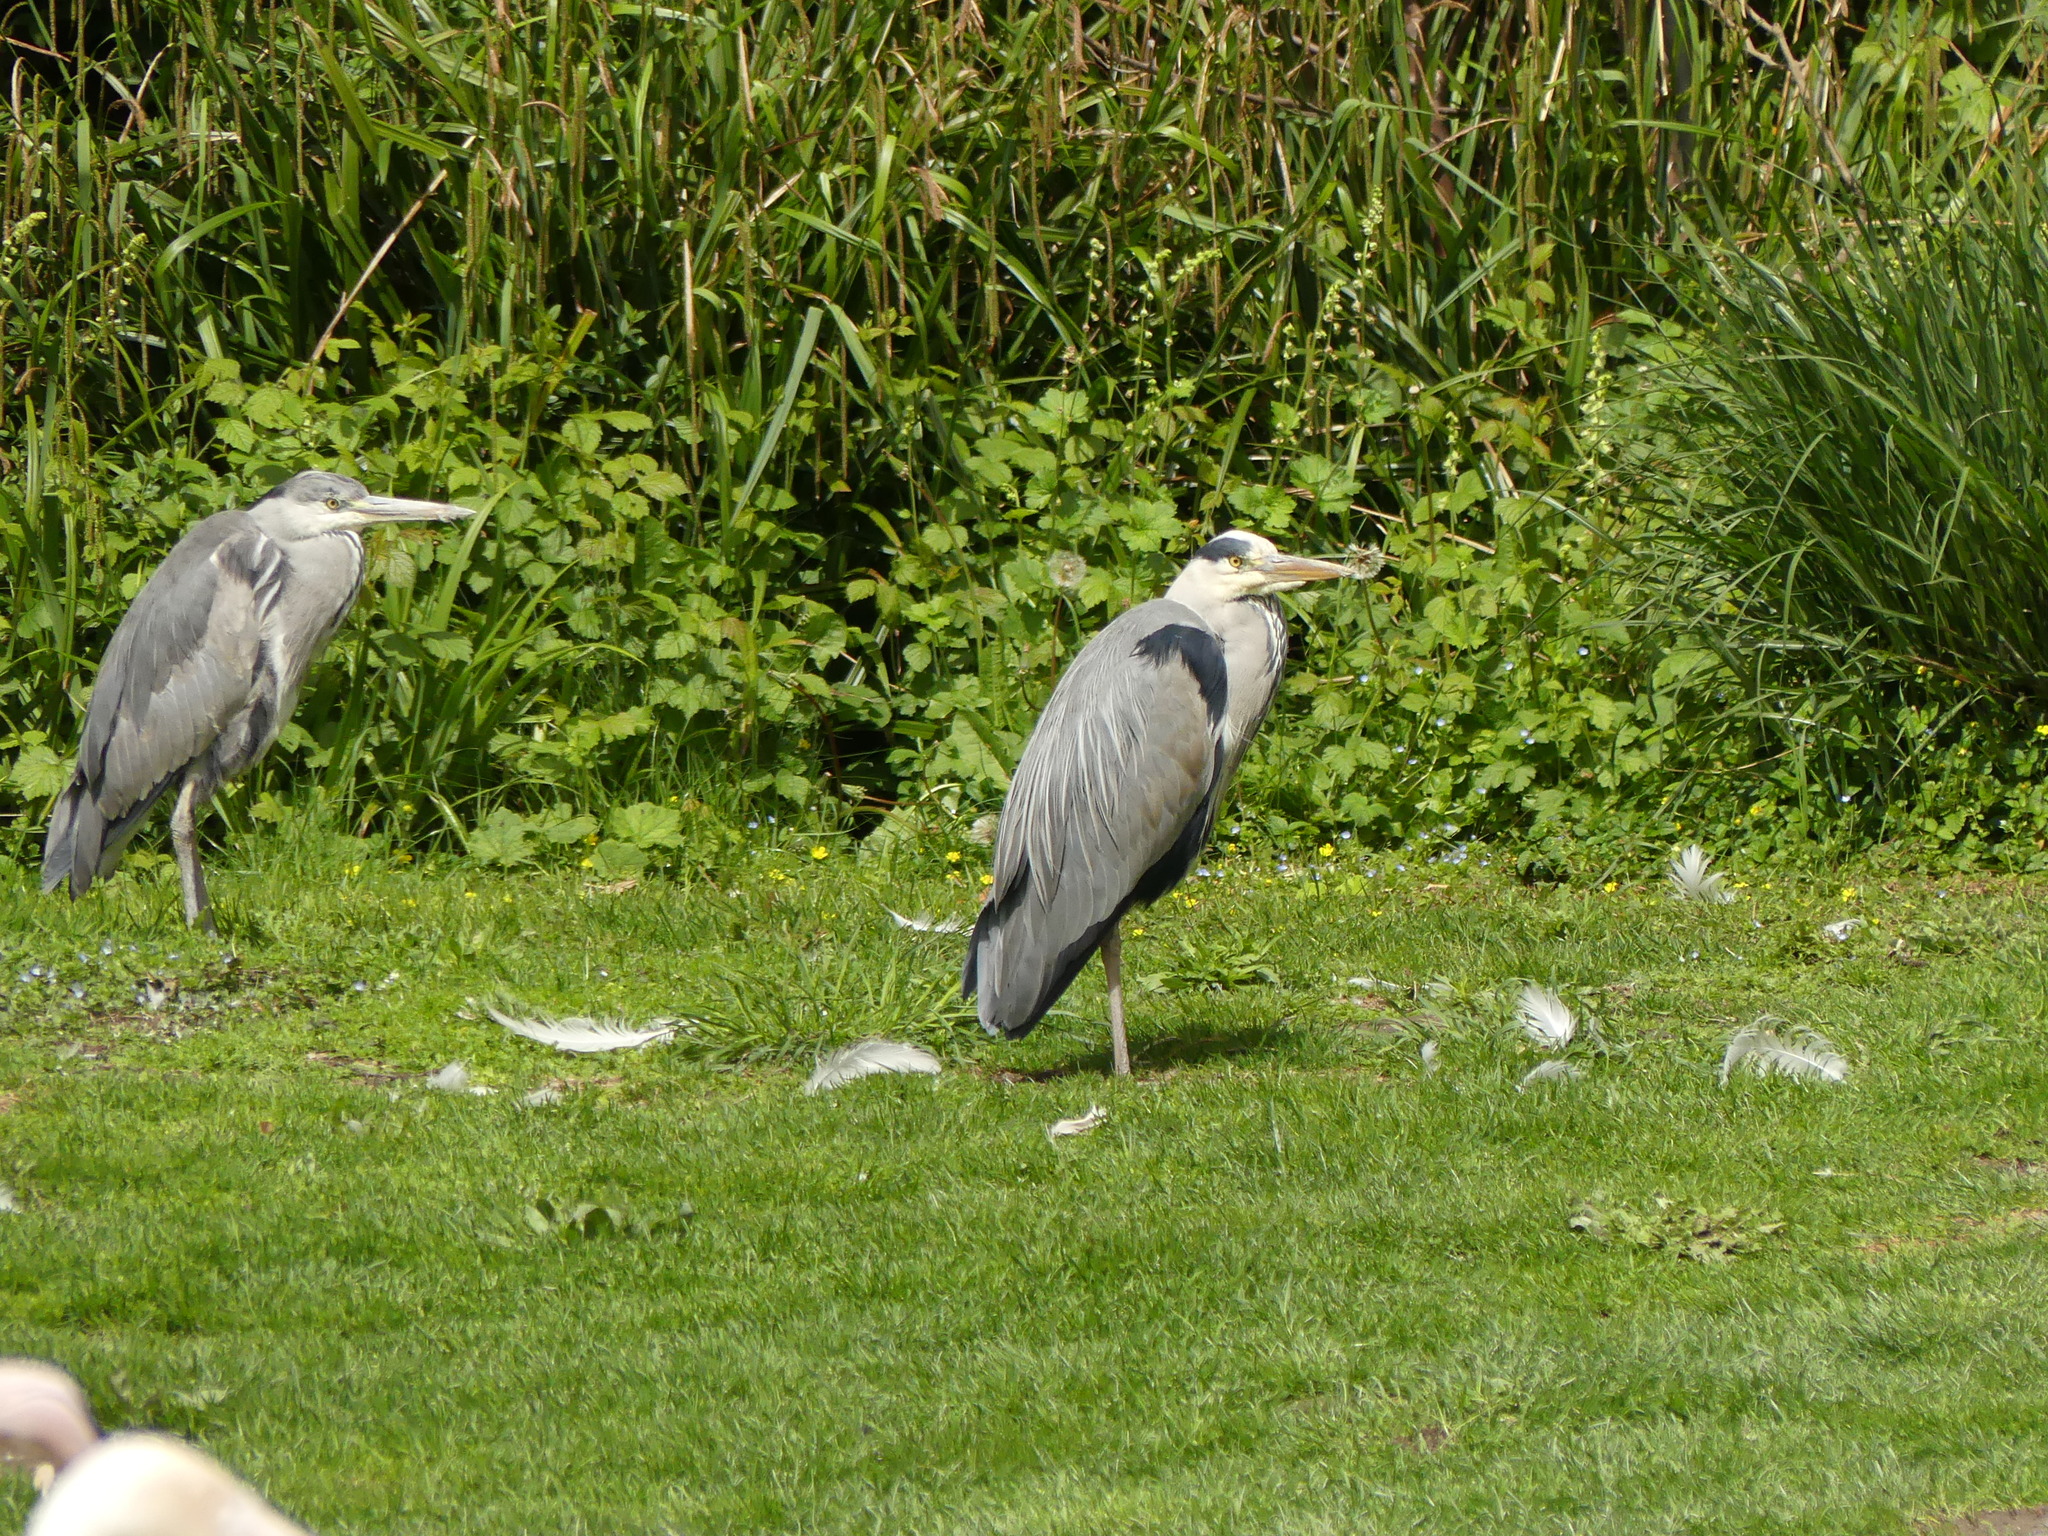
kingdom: Animalia
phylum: Chordata
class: Aves
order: Pelecaniformes
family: Ardeidae
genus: Ardea
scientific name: Ardea cinerea
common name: Grey heron
